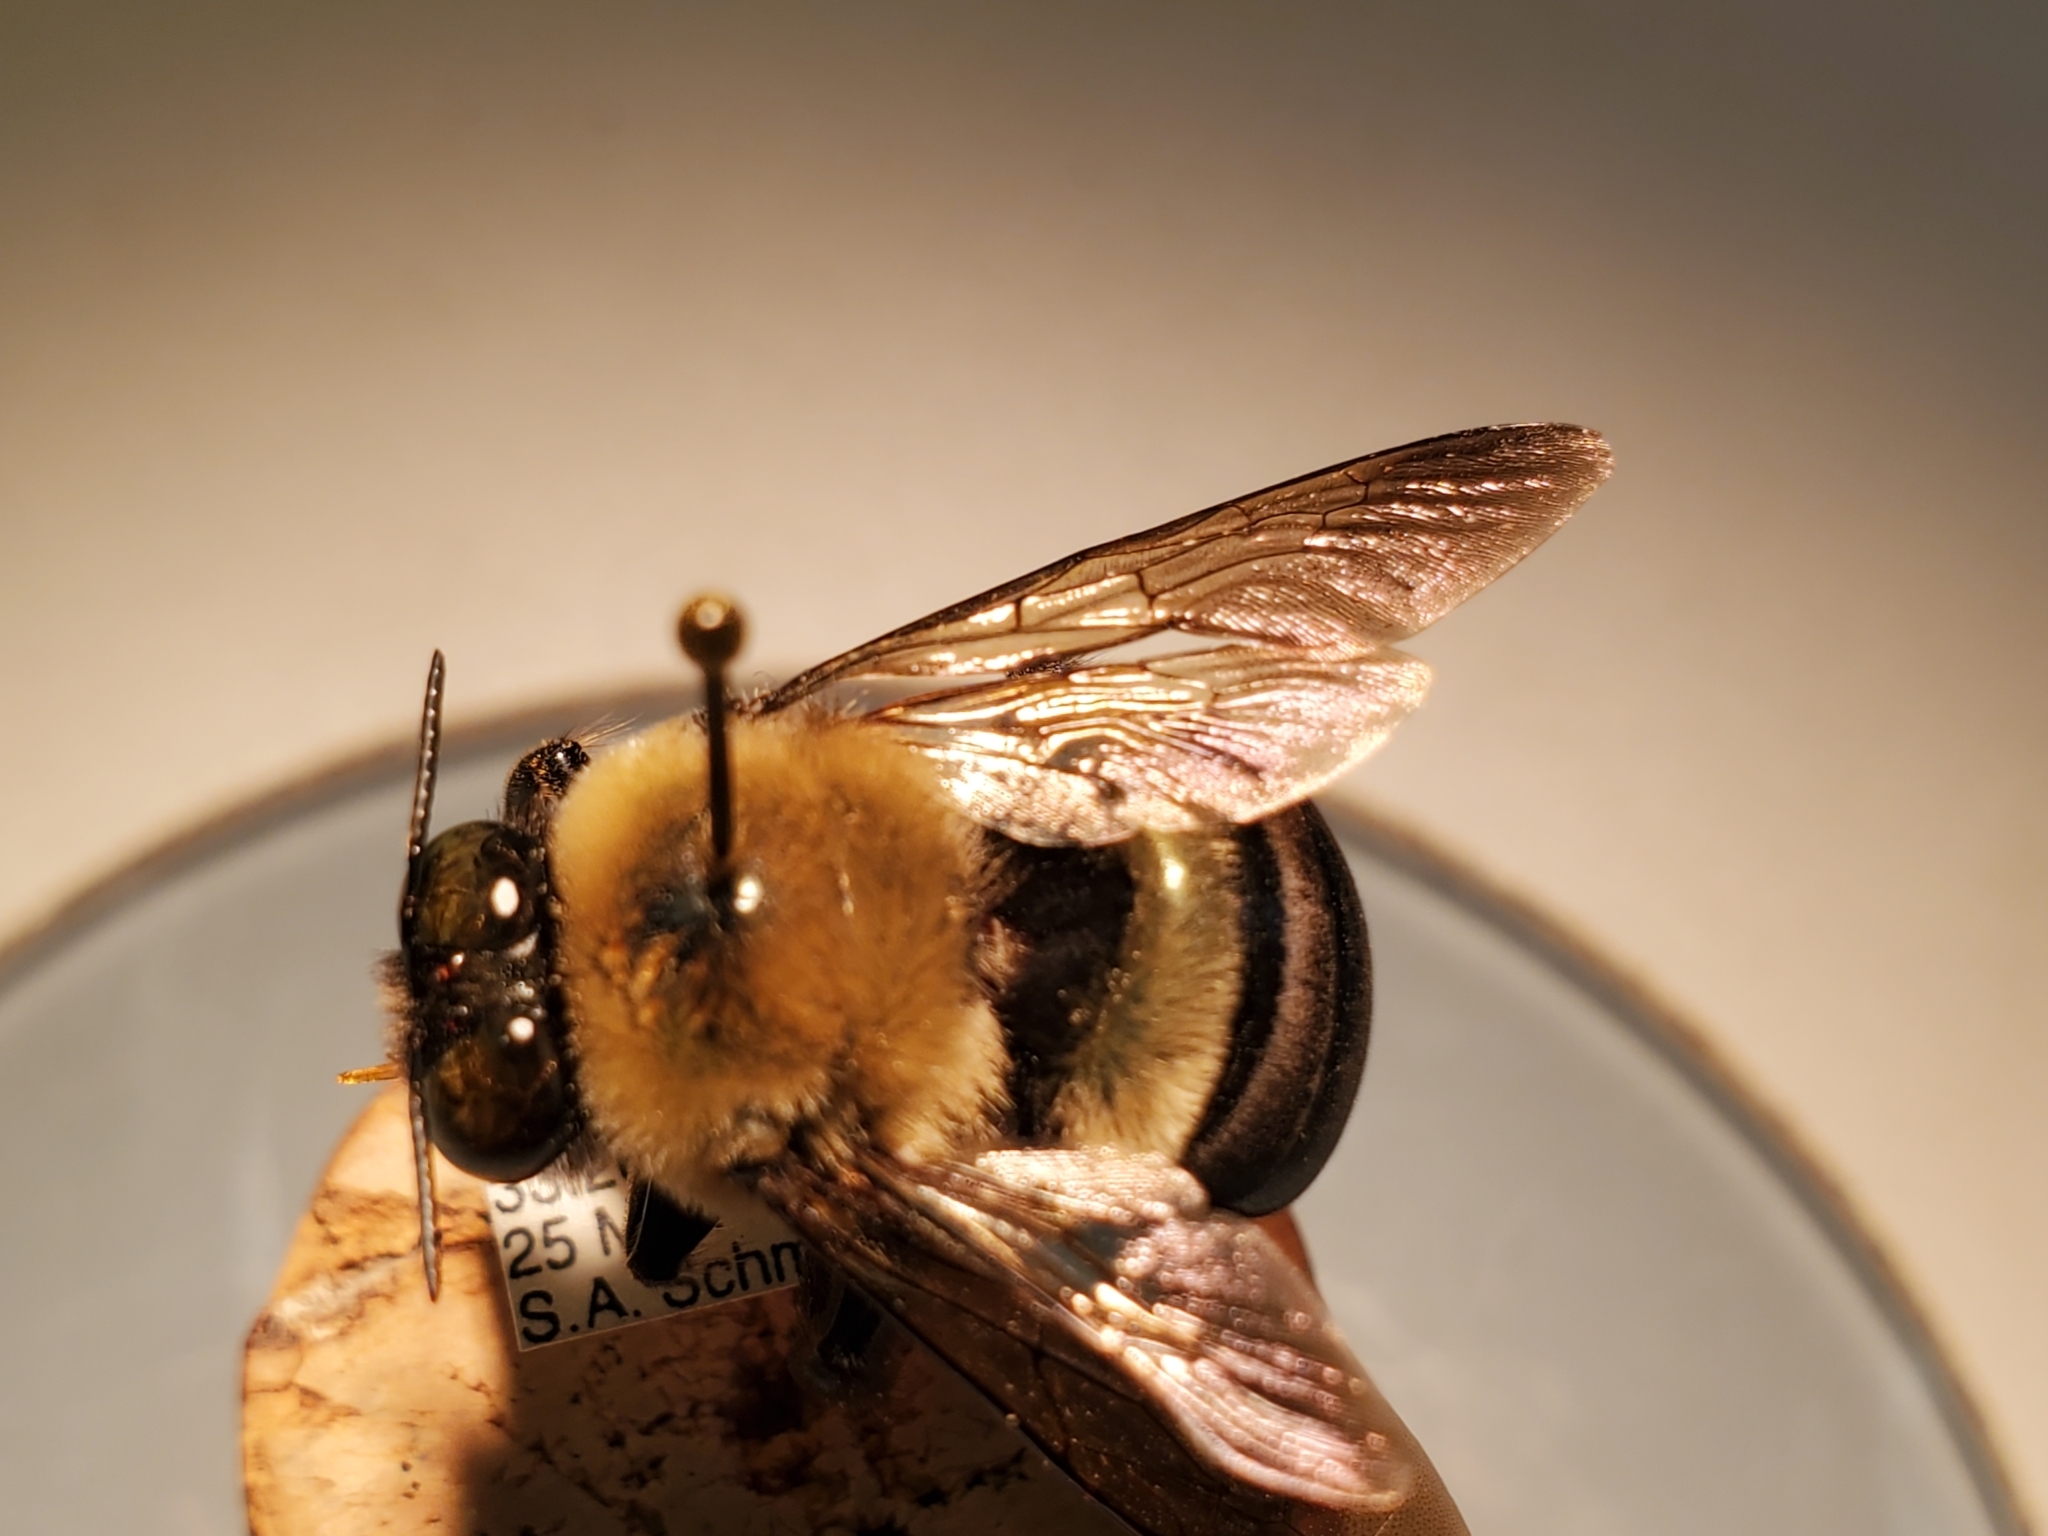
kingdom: Animalia
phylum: Arthropoda
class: Insecta
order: Hymenoptera
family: Apidae
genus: Xylocopa
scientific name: Xylocopa virginica
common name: Carpenter bee
